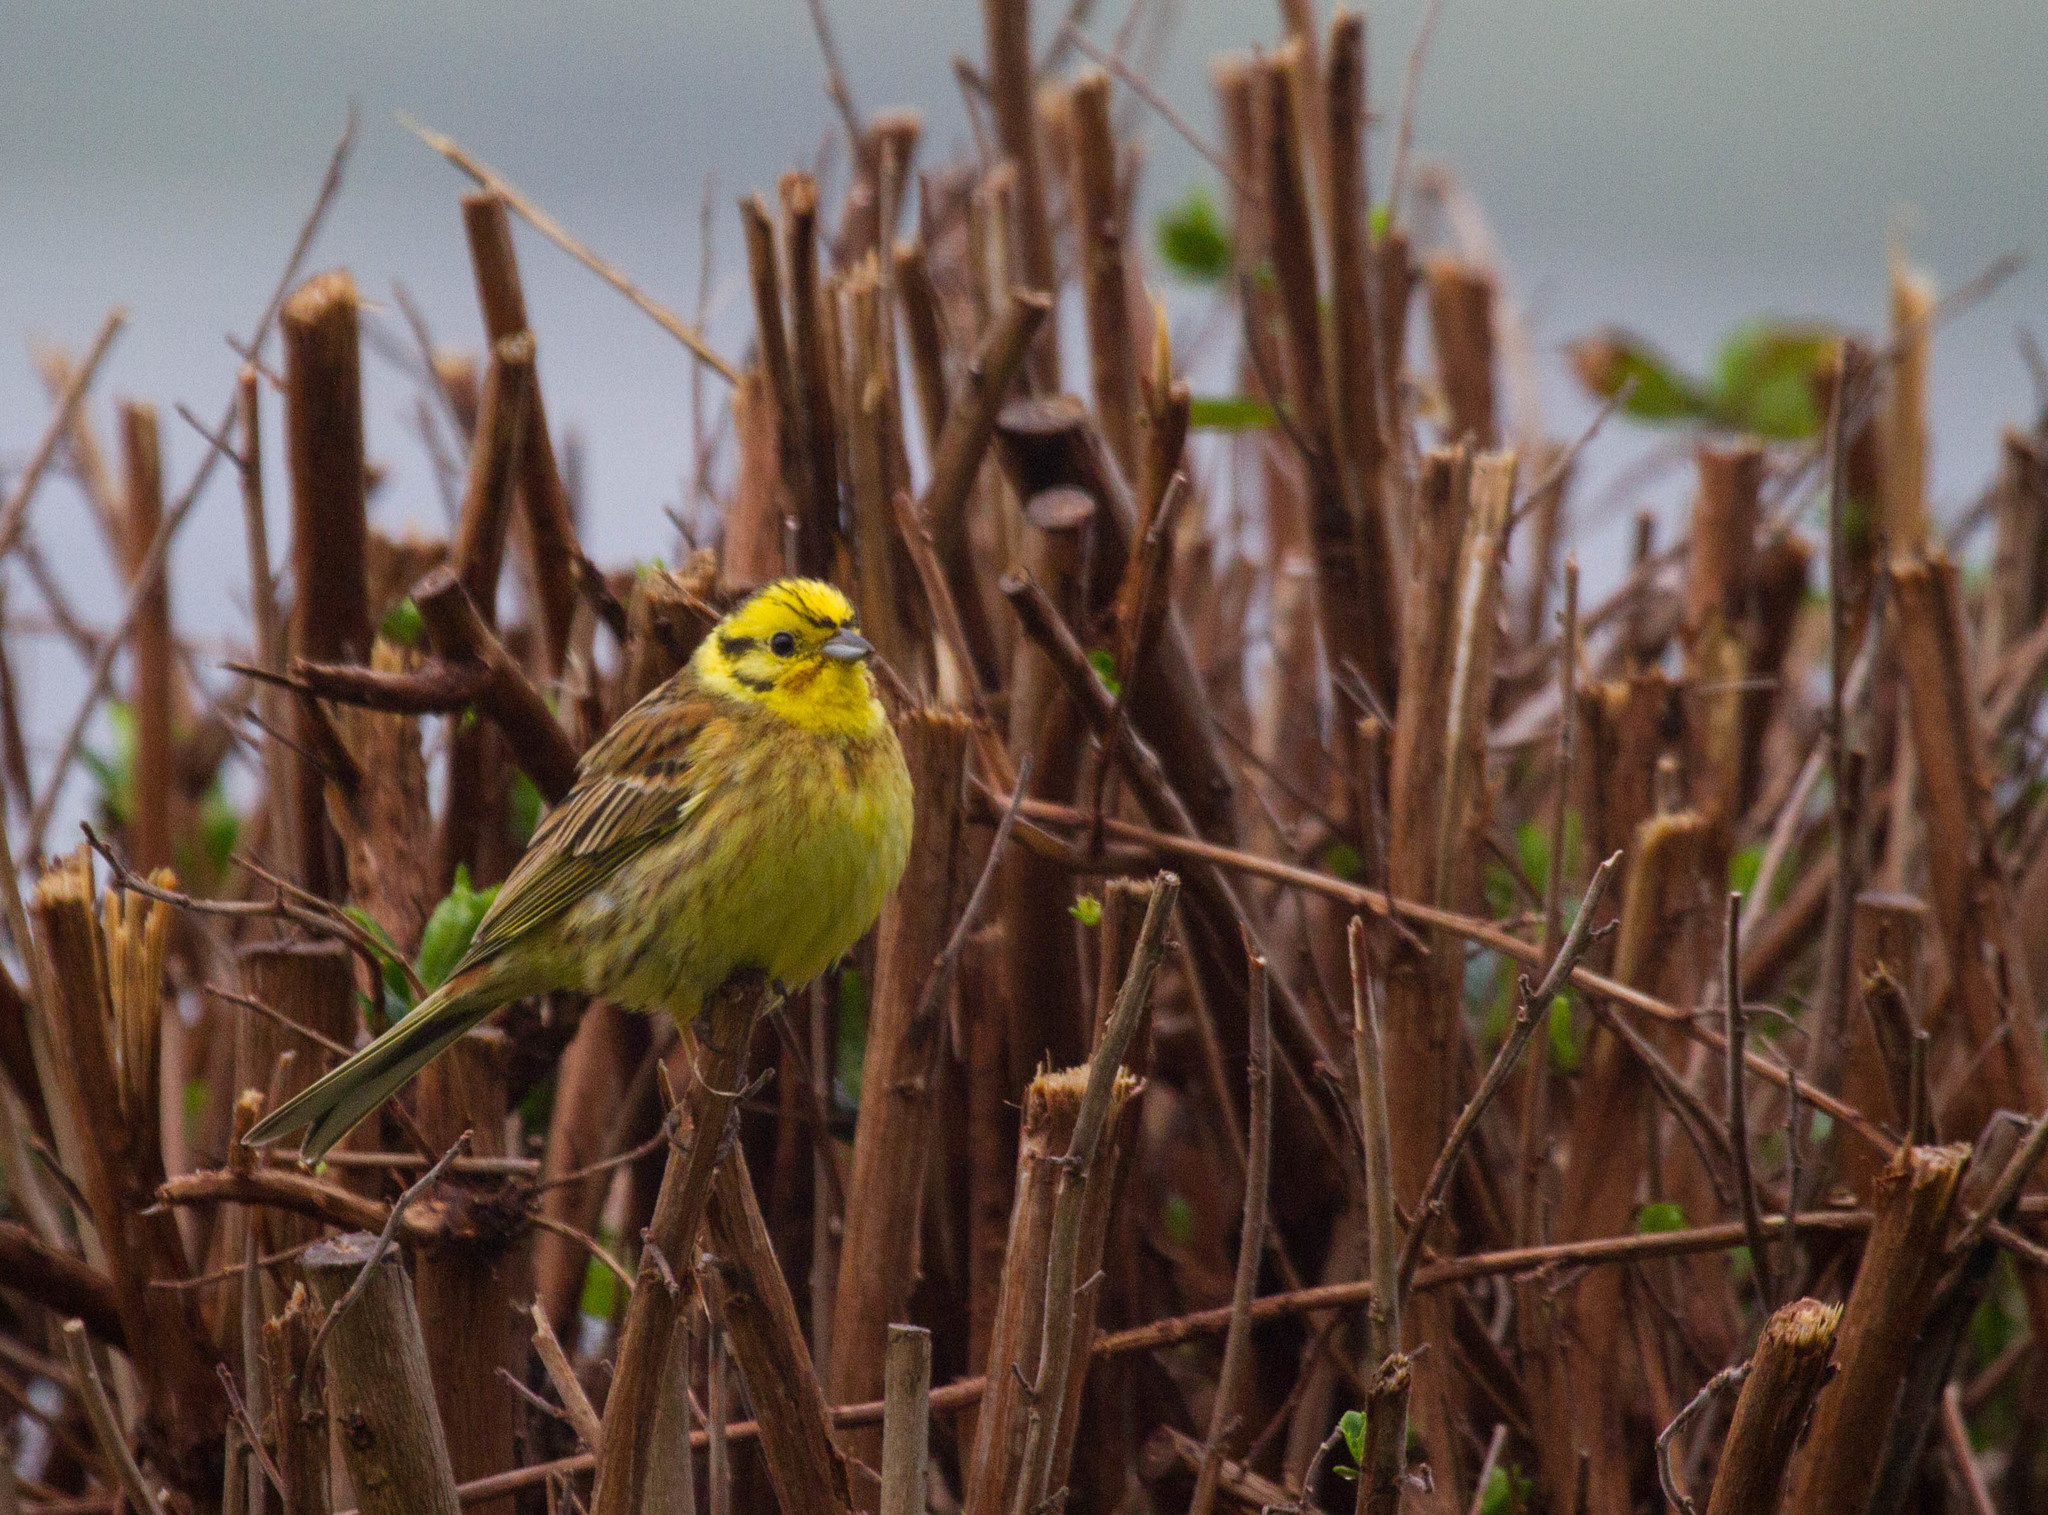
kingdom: Animalia
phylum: Chordata
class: Aves
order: Passeriformes
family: Emberizidae
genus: Emberiza
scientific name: Emberiza citrinella
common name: Yellowhammer
